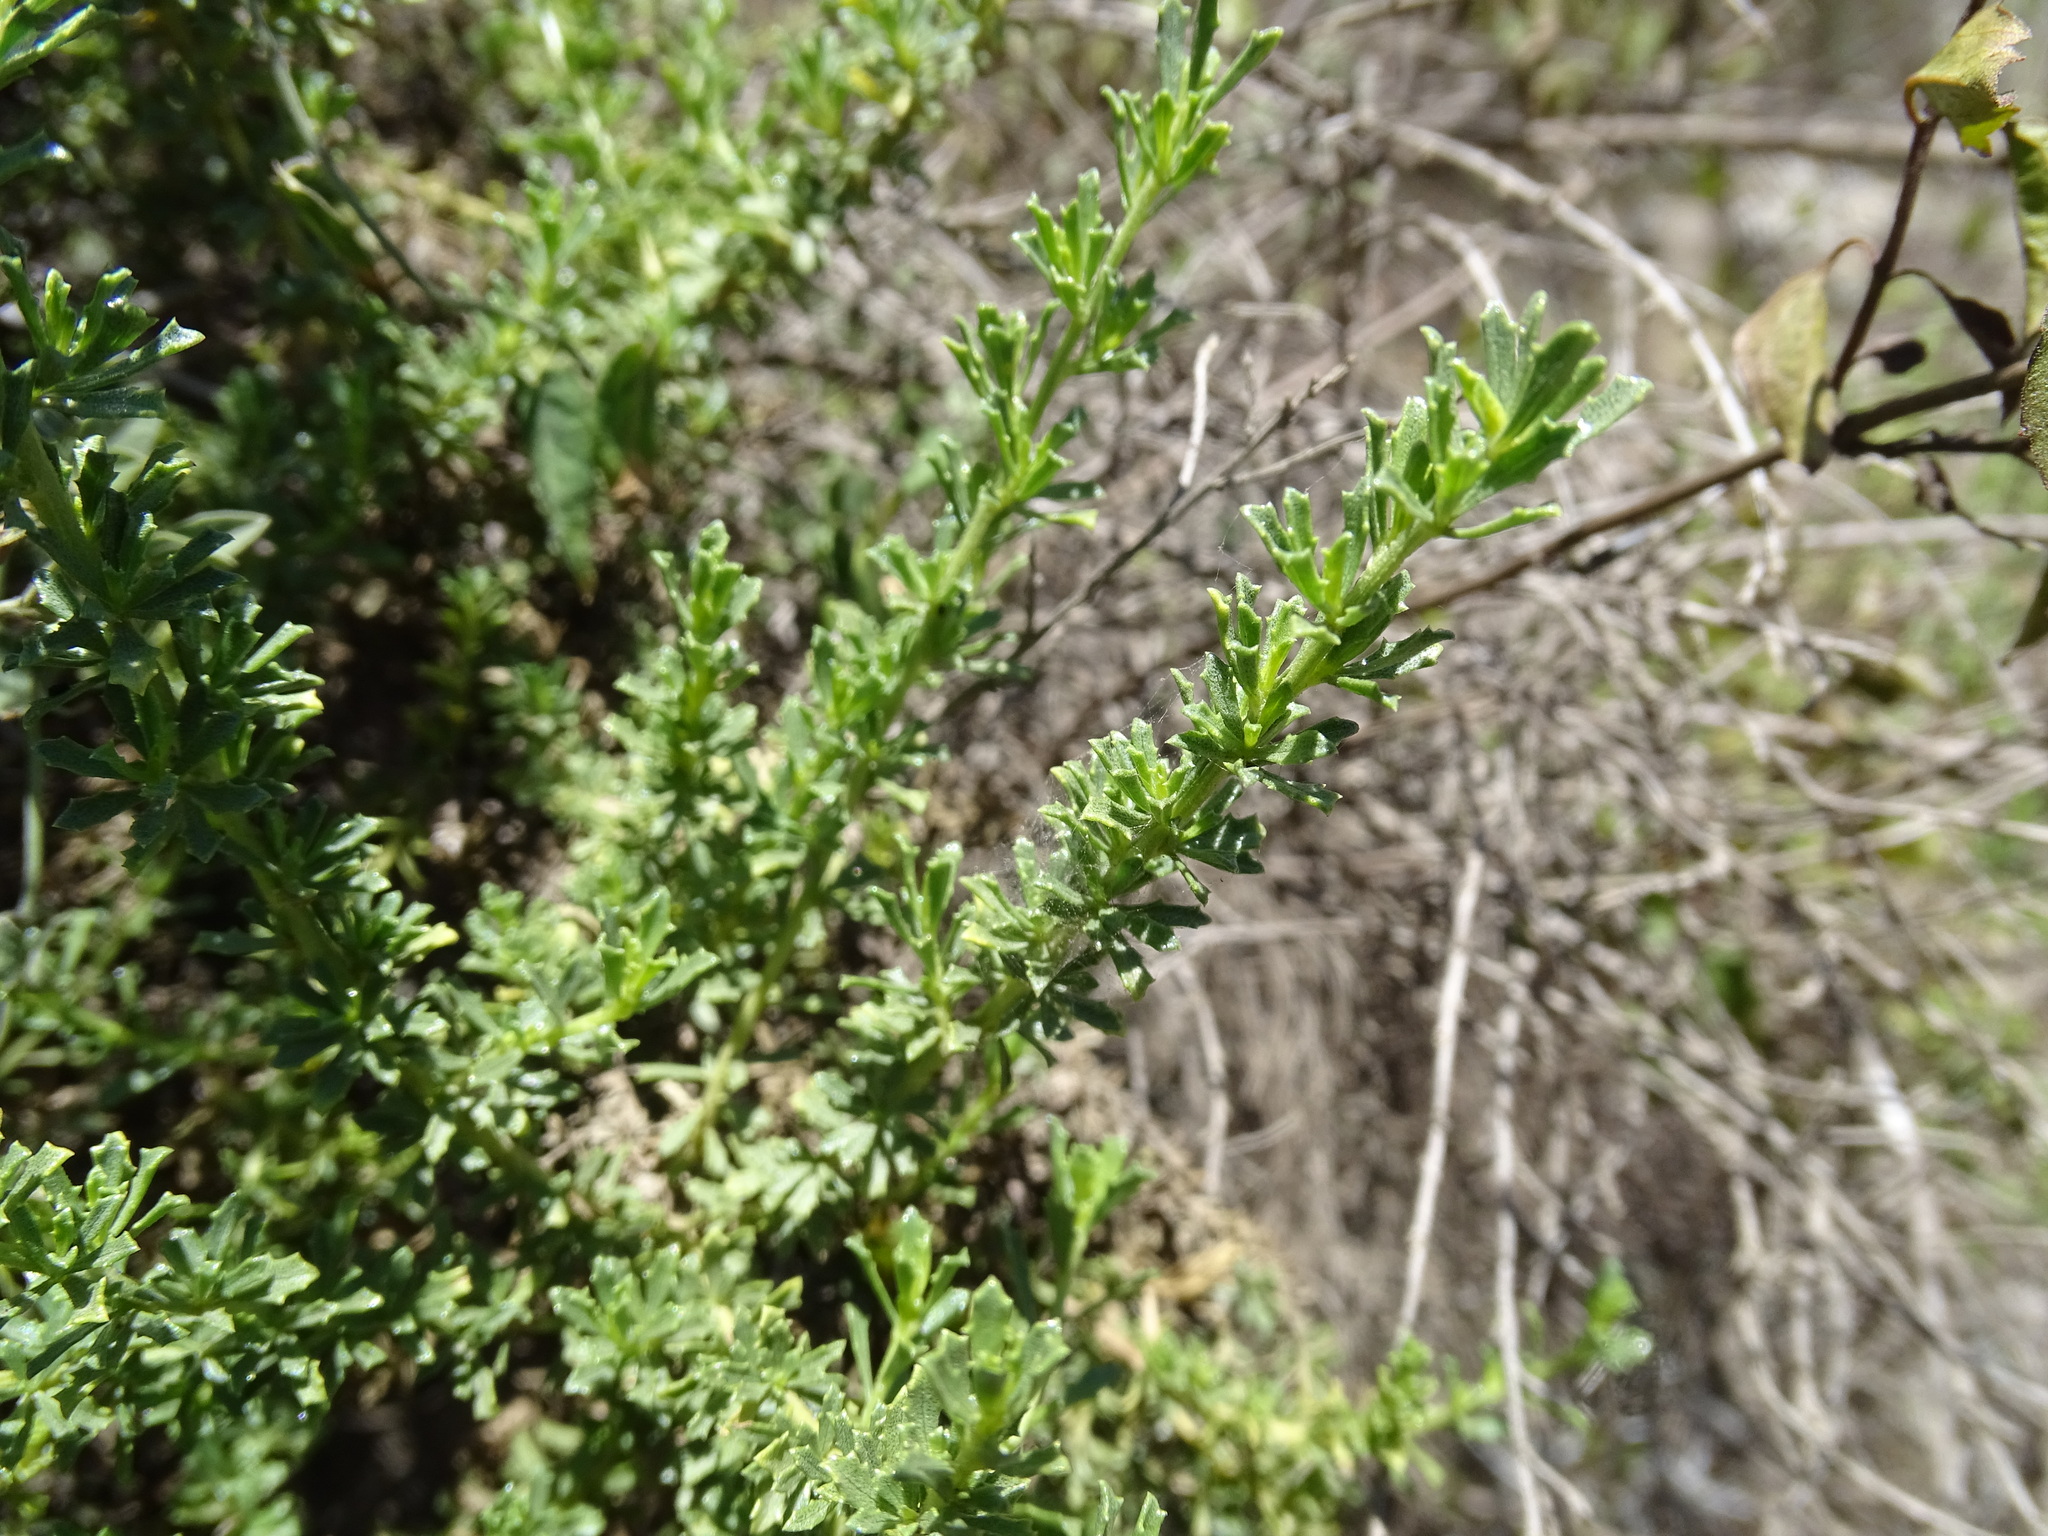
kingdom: Plantae
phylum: Tracheophyta
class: Magnoliopsida
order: Asterales
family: Asteraceae
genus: Baccharis
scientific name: Baccharis pteronioides
